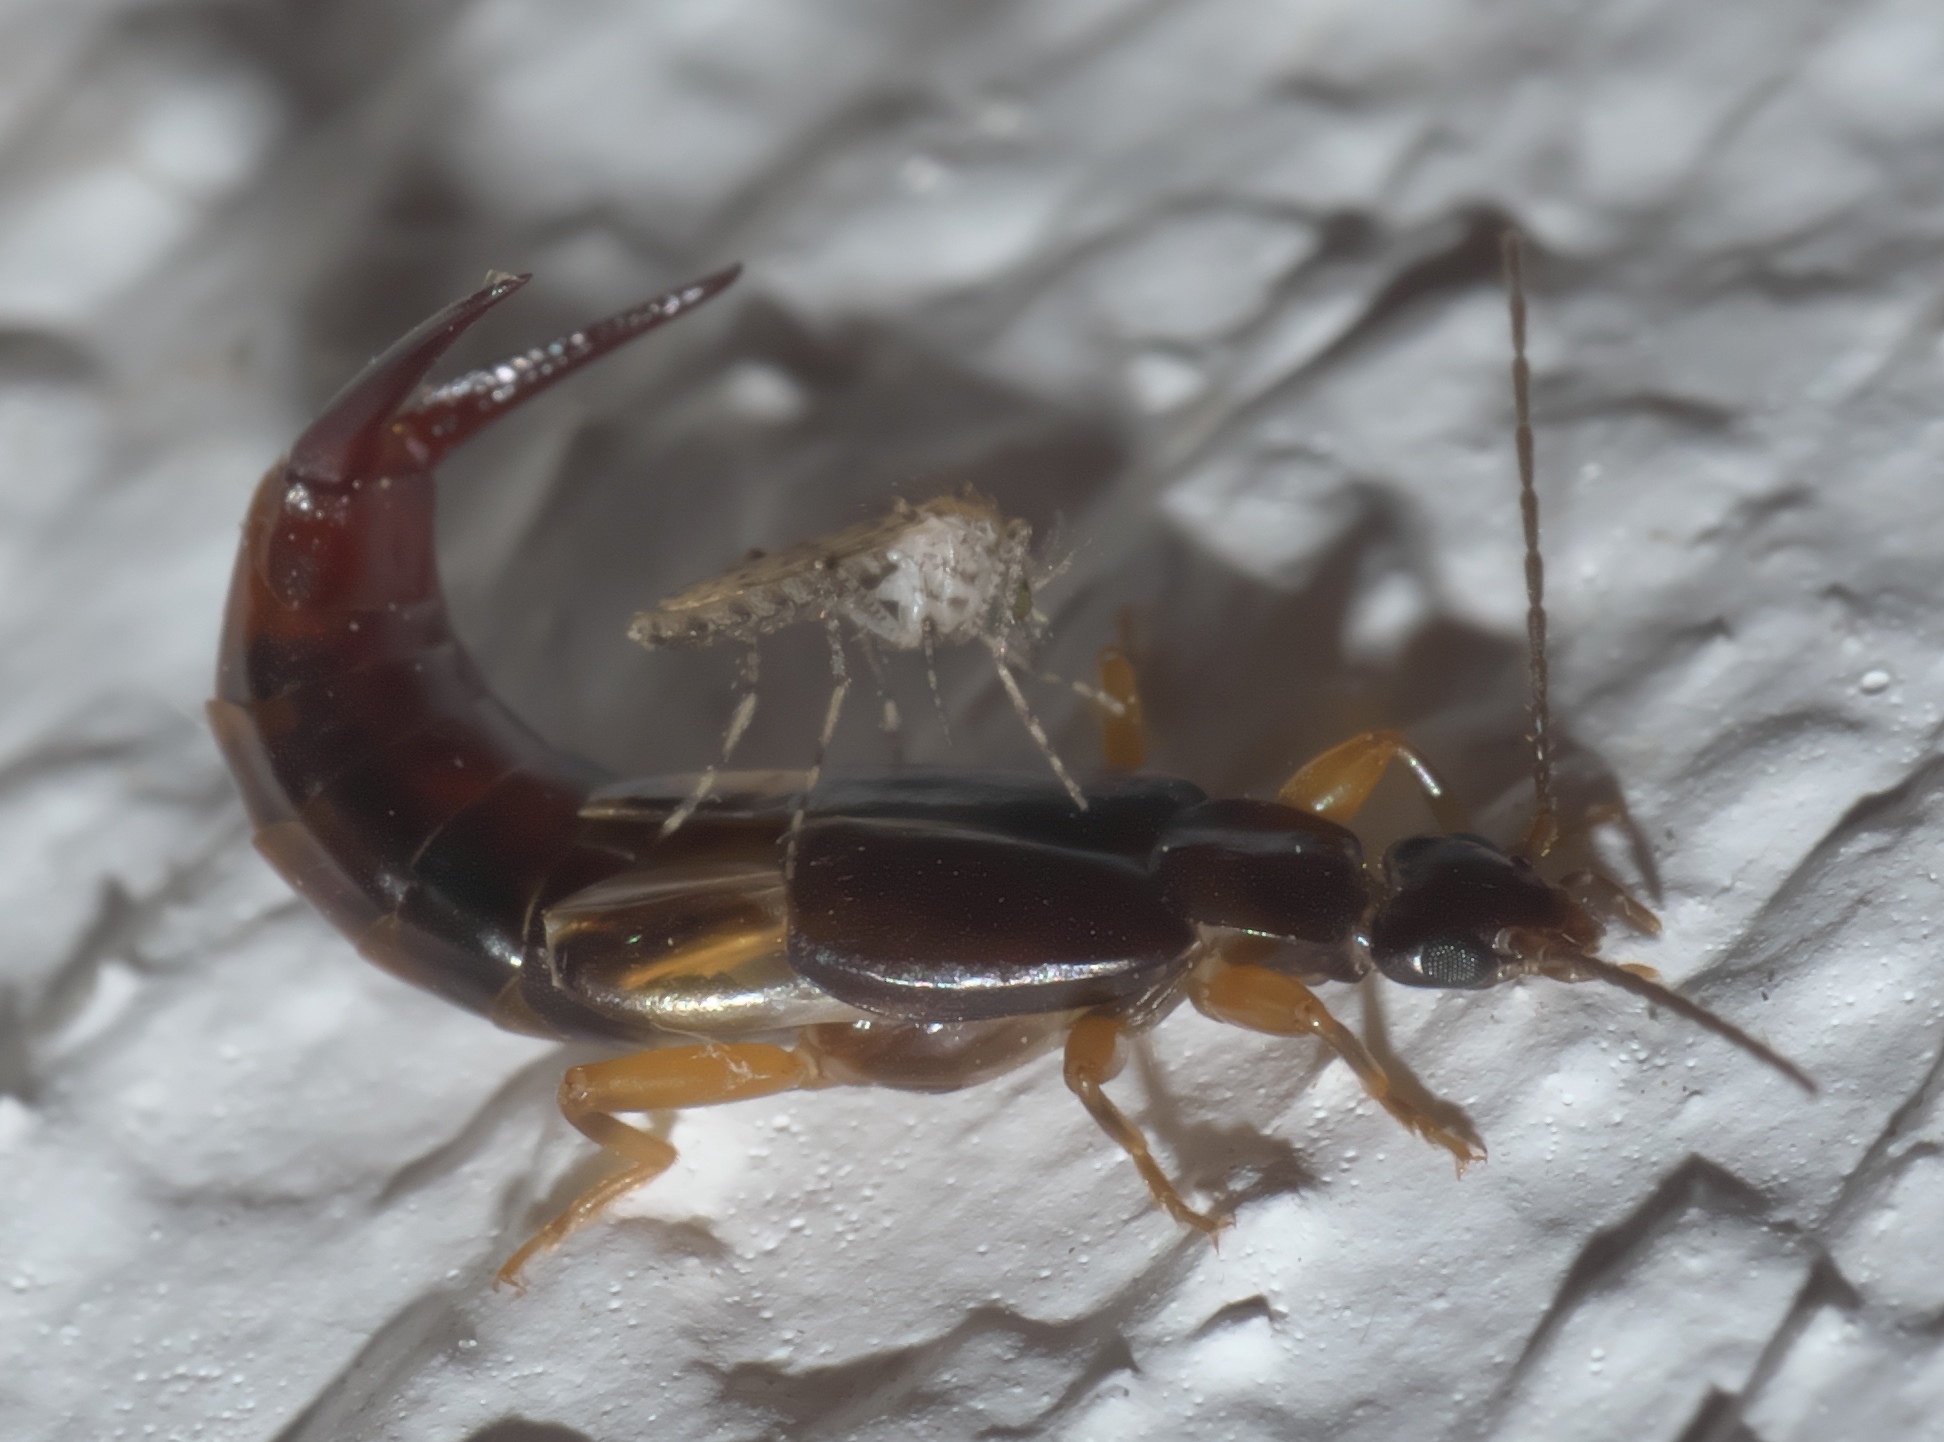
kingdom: Animalia
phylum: Arthropoda
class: Insecta
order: Dermaptera
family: Spongiphoridae
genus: Vostox
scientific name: Vostox brunneipennis
